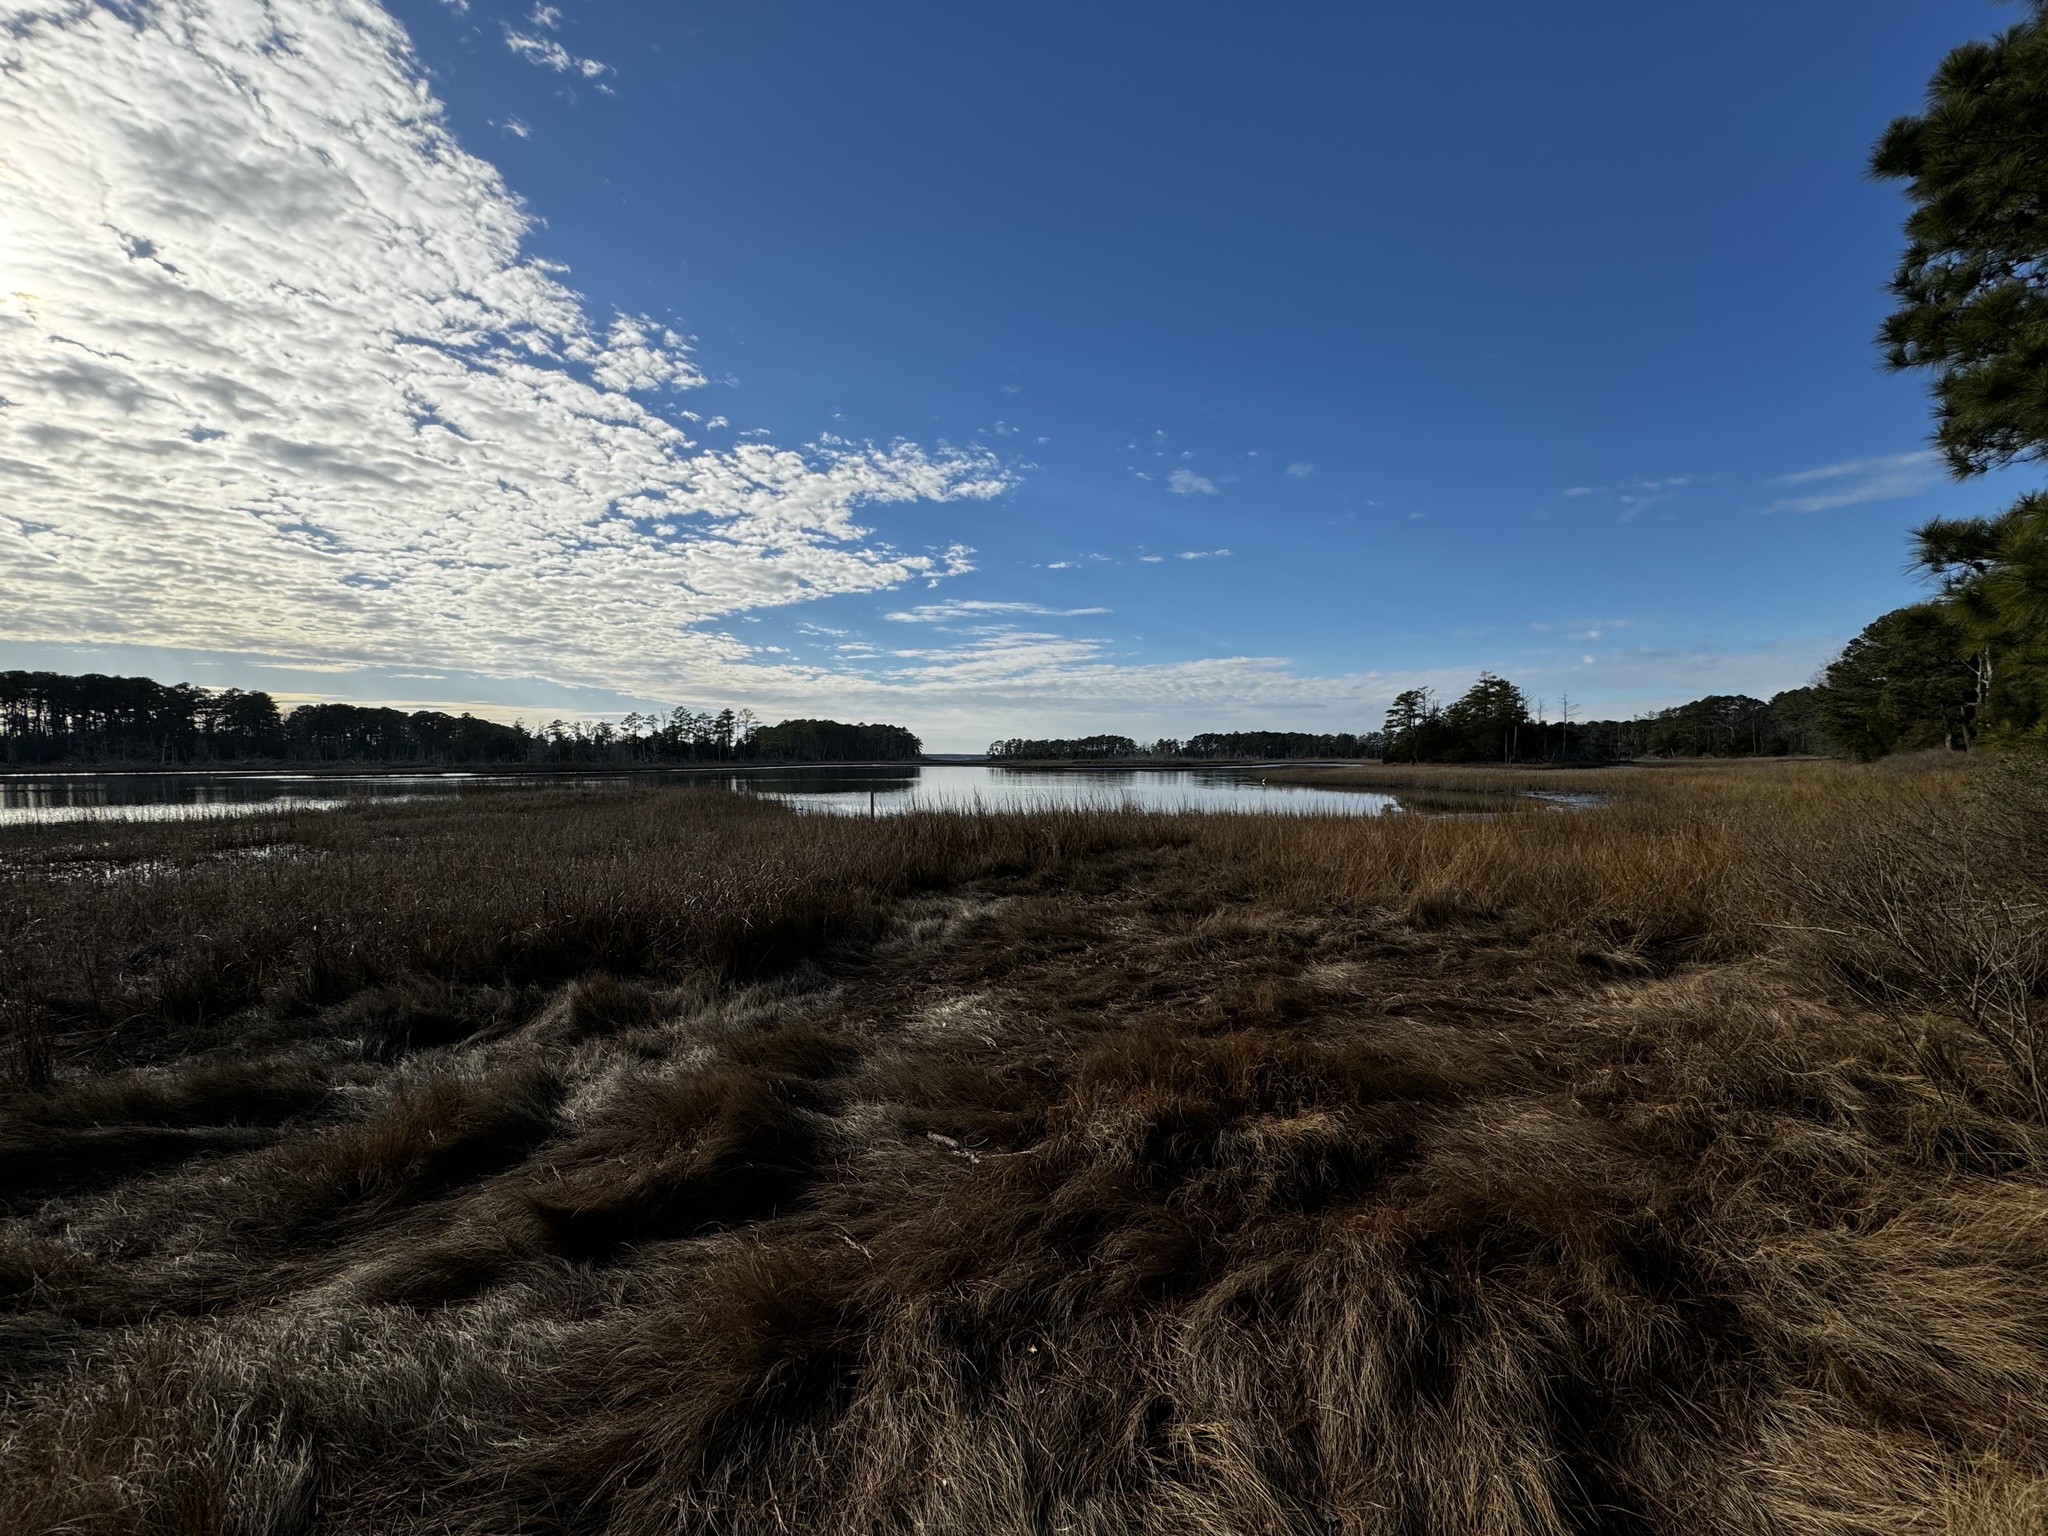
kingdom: Animalia
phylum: Chordata
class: Aves
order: Pelecaniformes
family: Ardeidae
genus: Ardea
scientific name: Ardea alba
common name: Great egret
